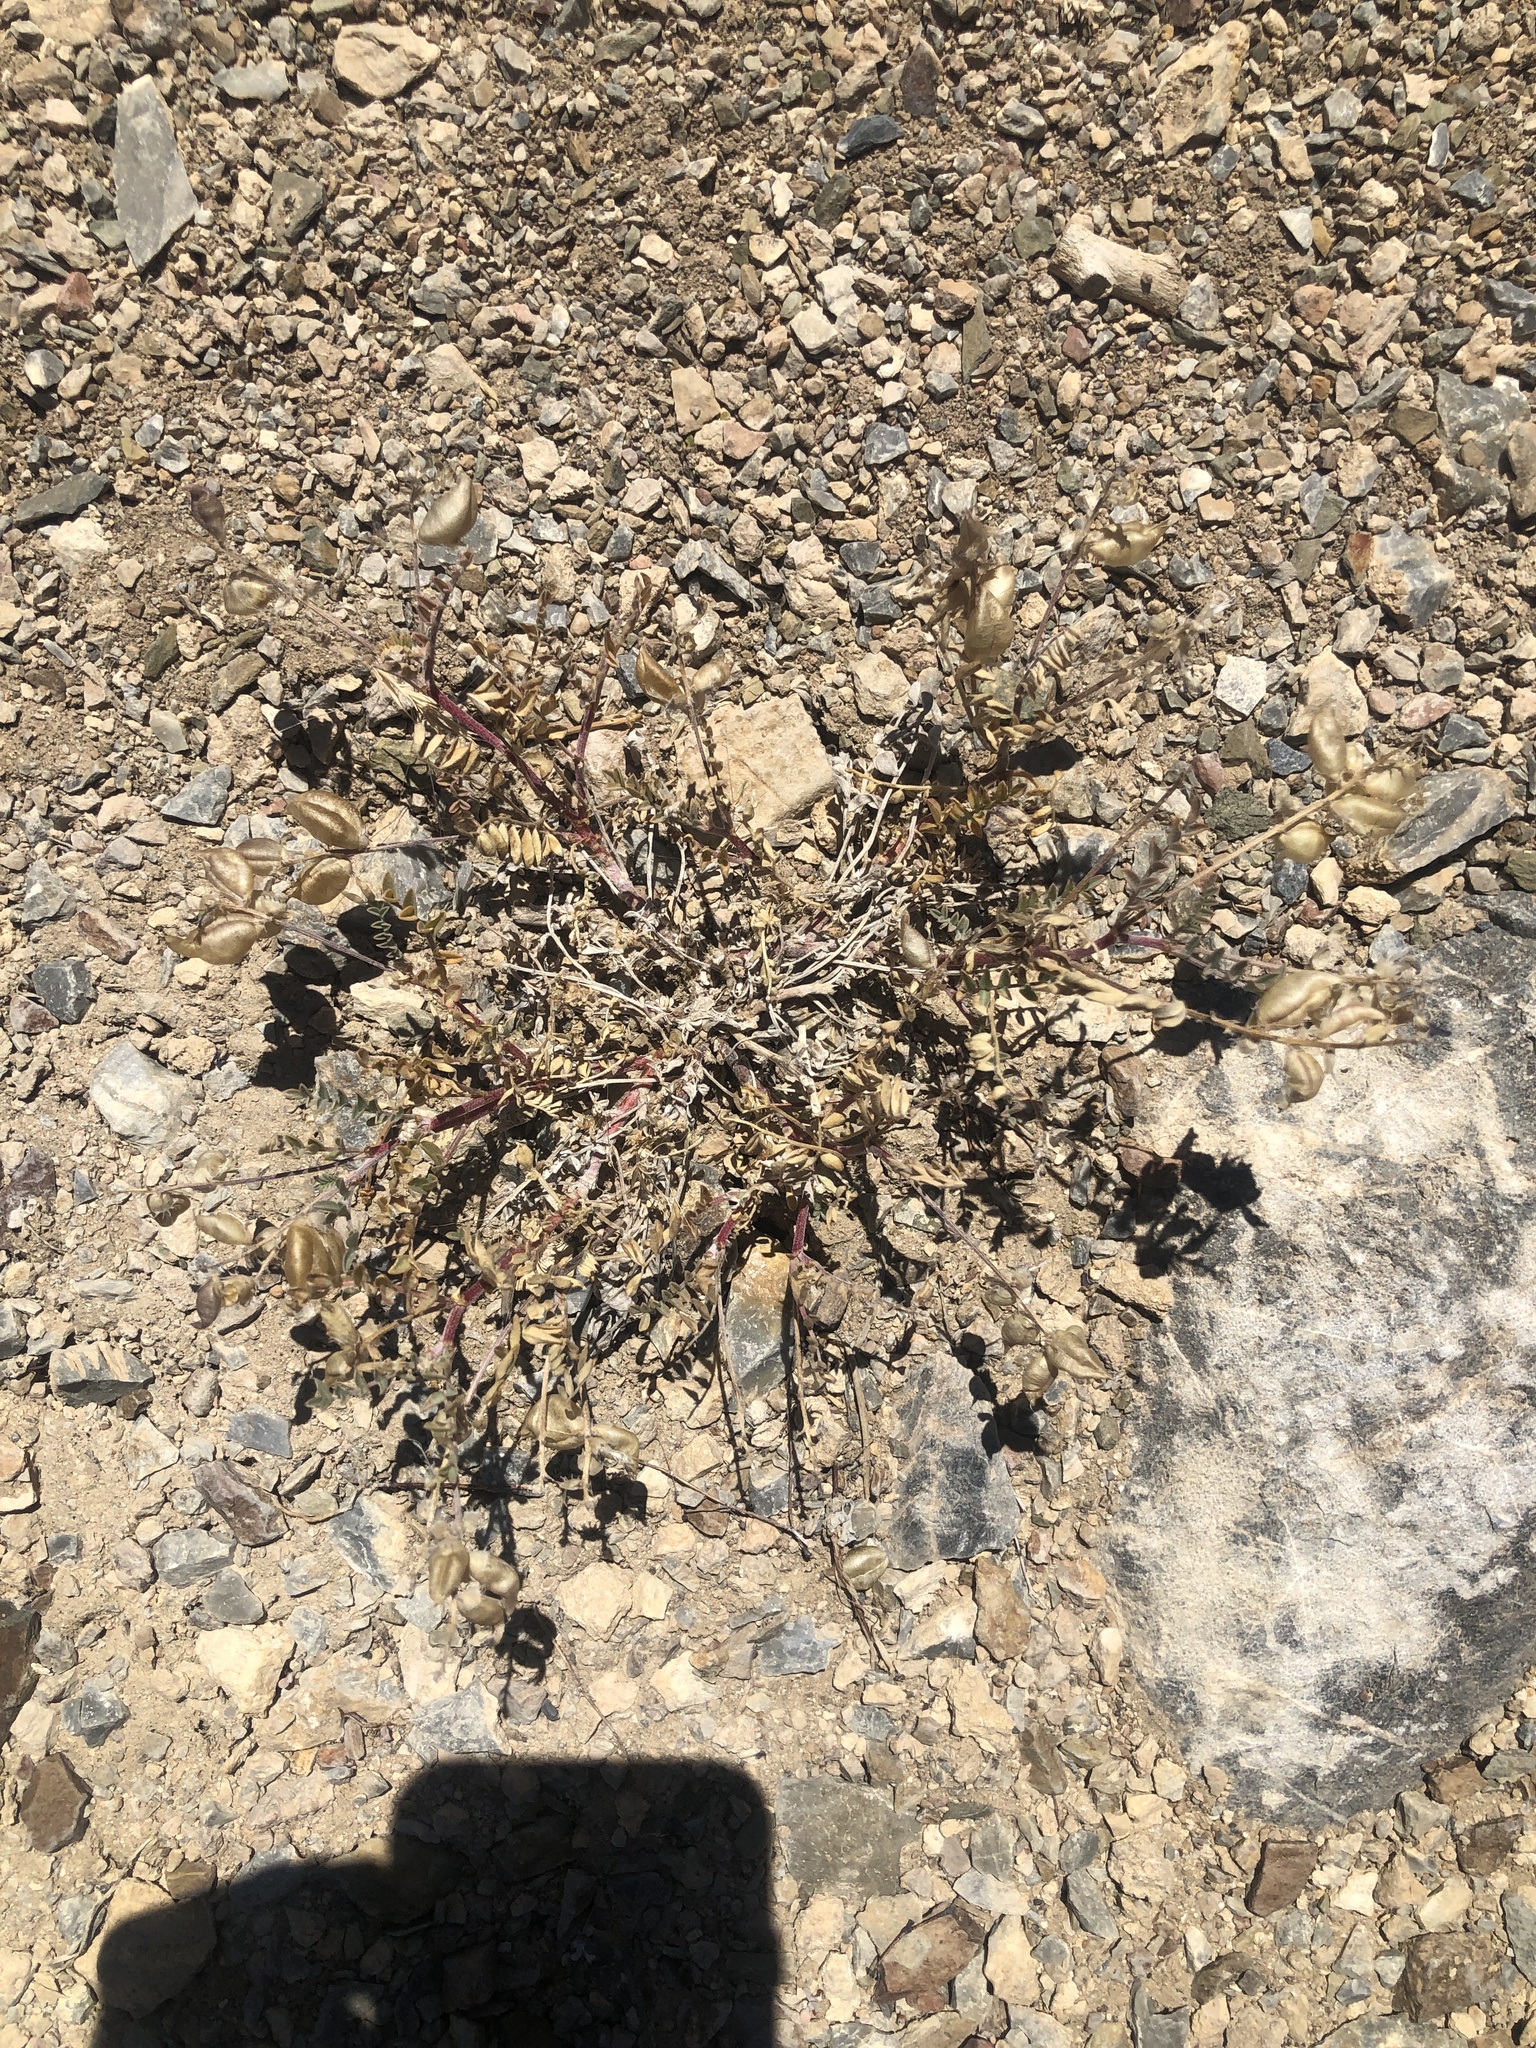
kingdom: Plantae
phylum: Tracheophyta
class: Magnoliopsida
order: Fabales
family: Fabaceae
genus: Astragalus
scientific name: Astragalus lentiginosus
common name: Freckled milkvetch
